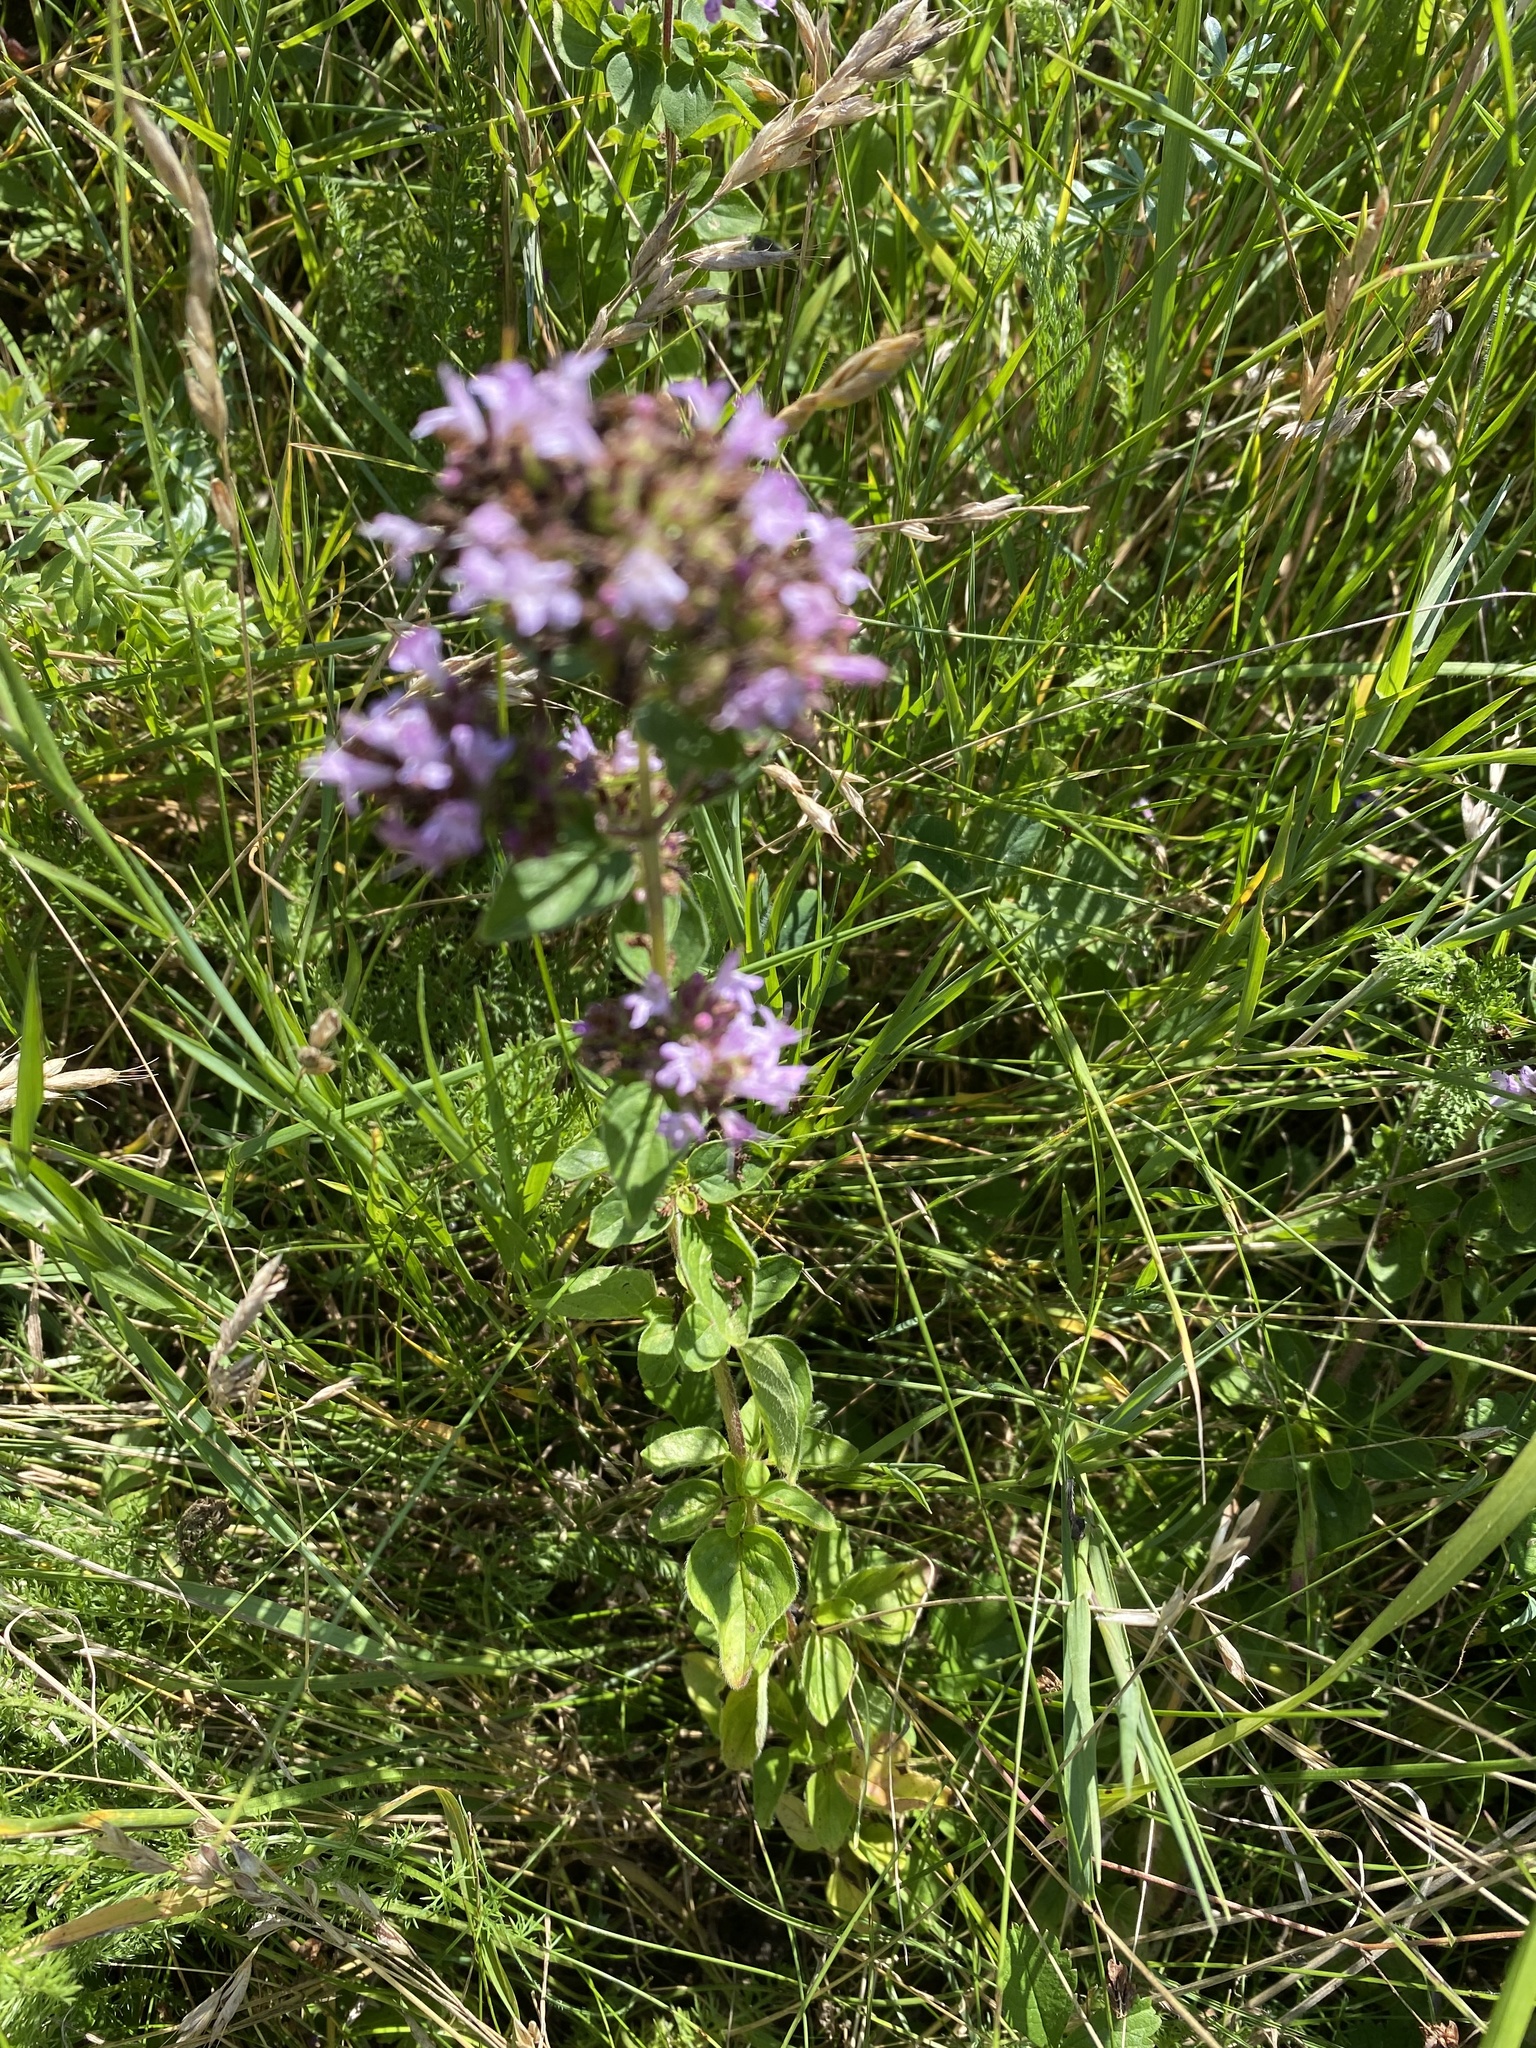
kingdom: Plantae
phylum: Tracheophyta
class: Magnoliopsida
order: Lamiales
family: Lamiaceae
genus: Origanum
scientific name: Origanum vulgare
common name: Wild marjoram
